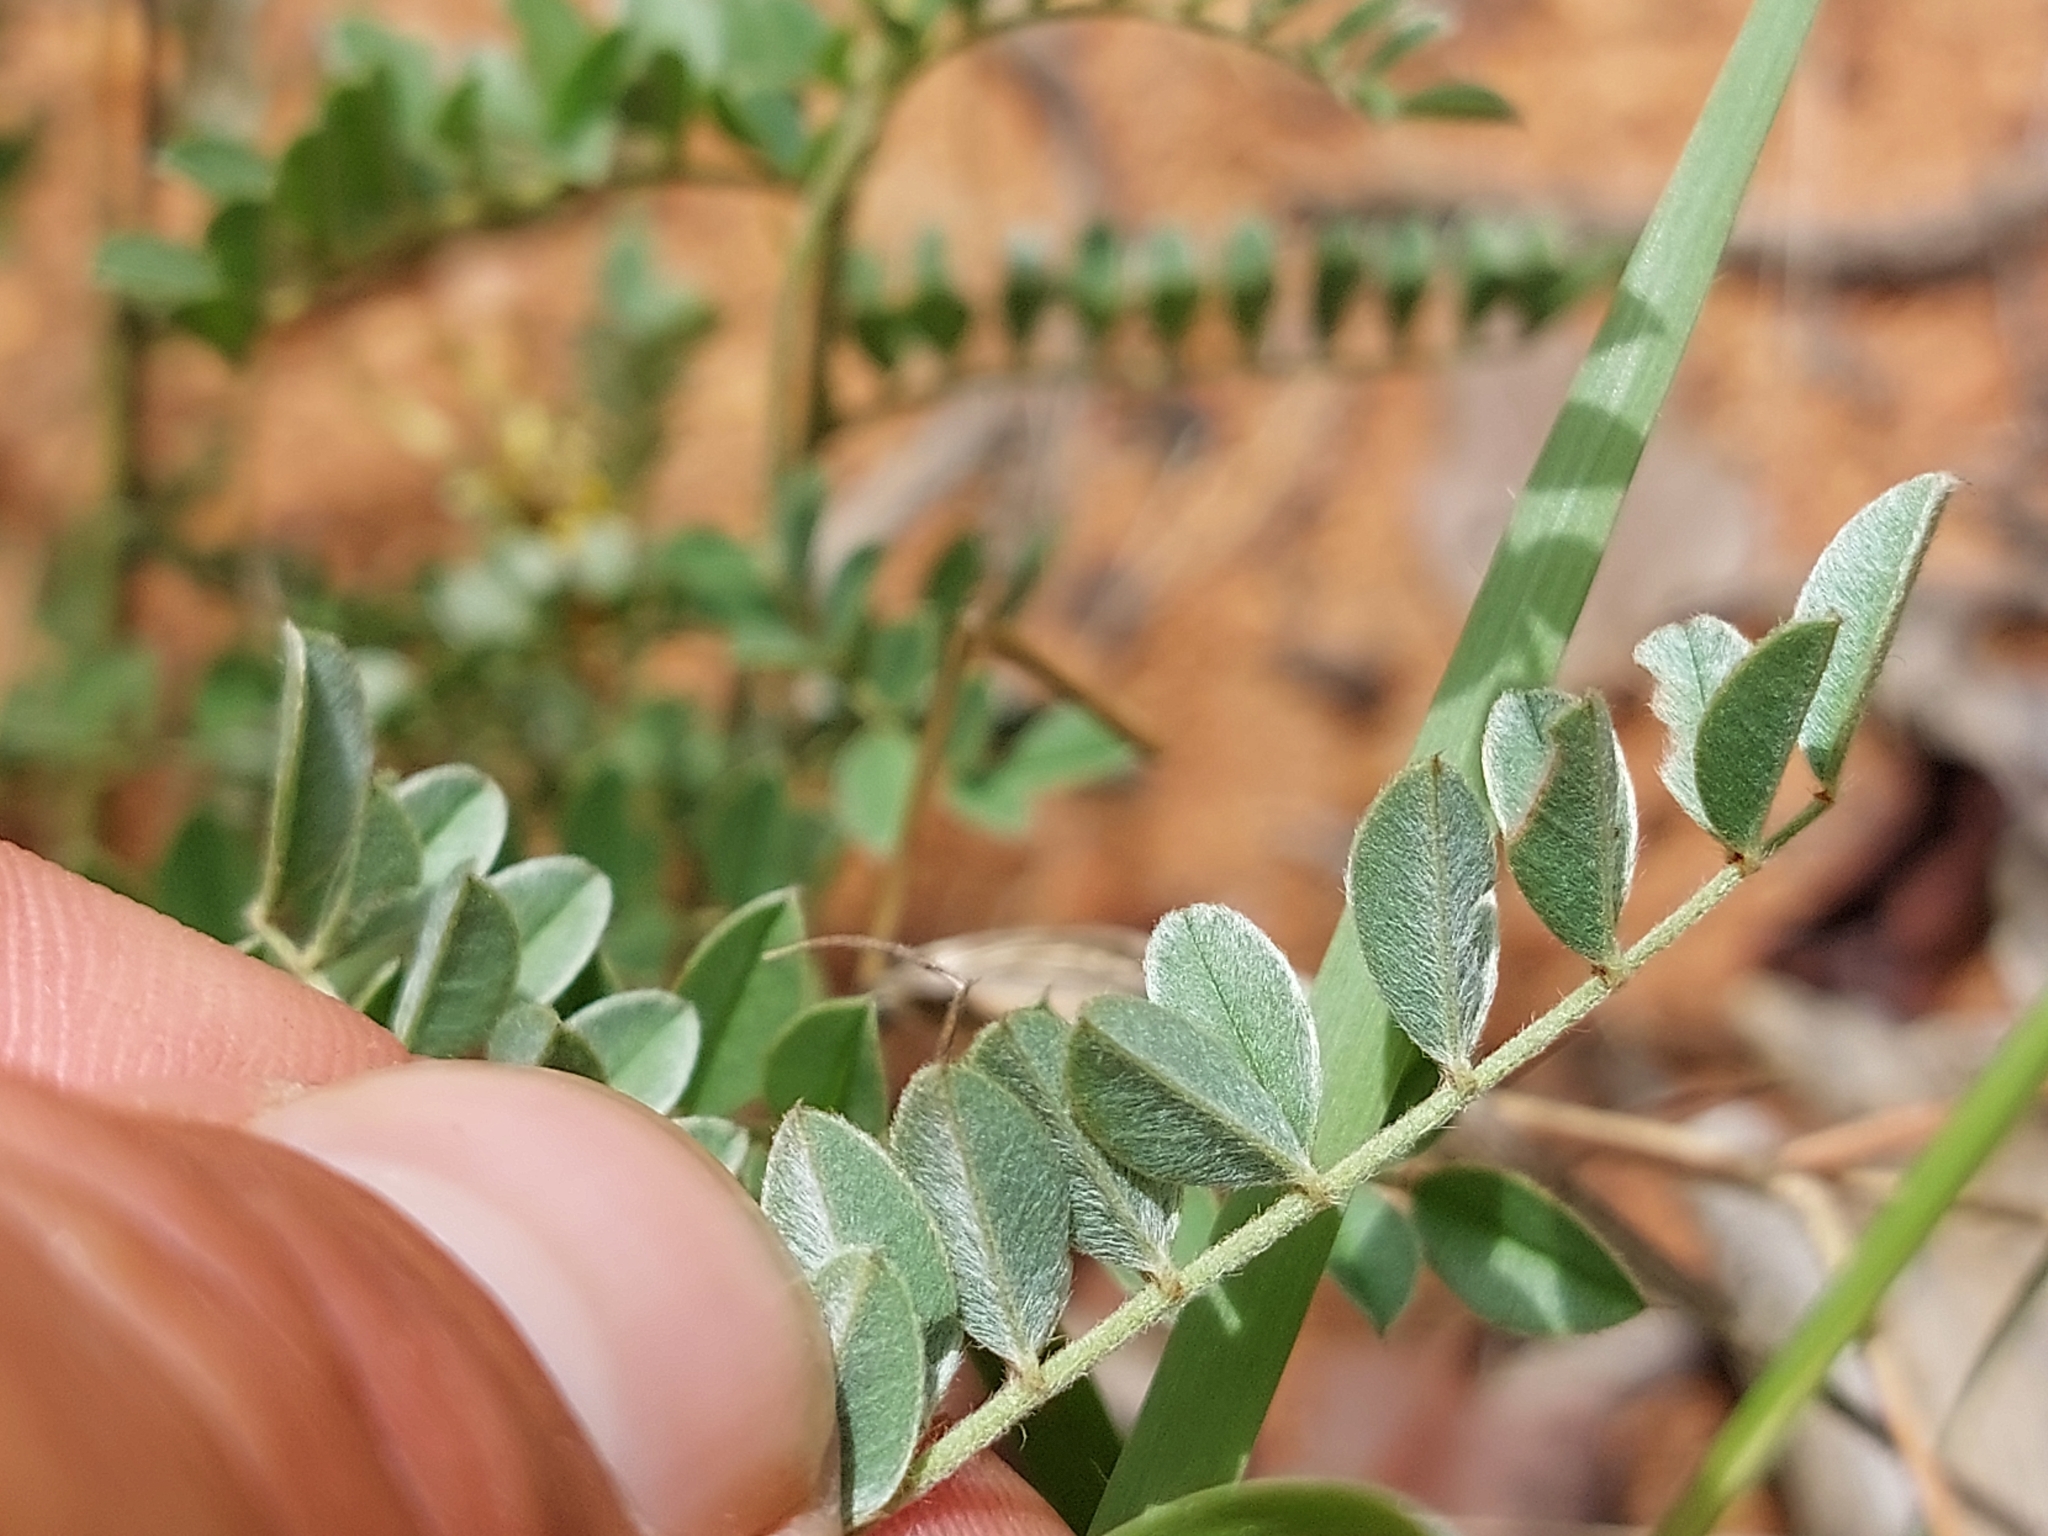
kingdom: Plantae
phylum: Tracheophyta
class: Magnoliopsida
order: Fabales
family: Fabaceae
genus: Indigofera
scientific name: Indigofera pongolana
